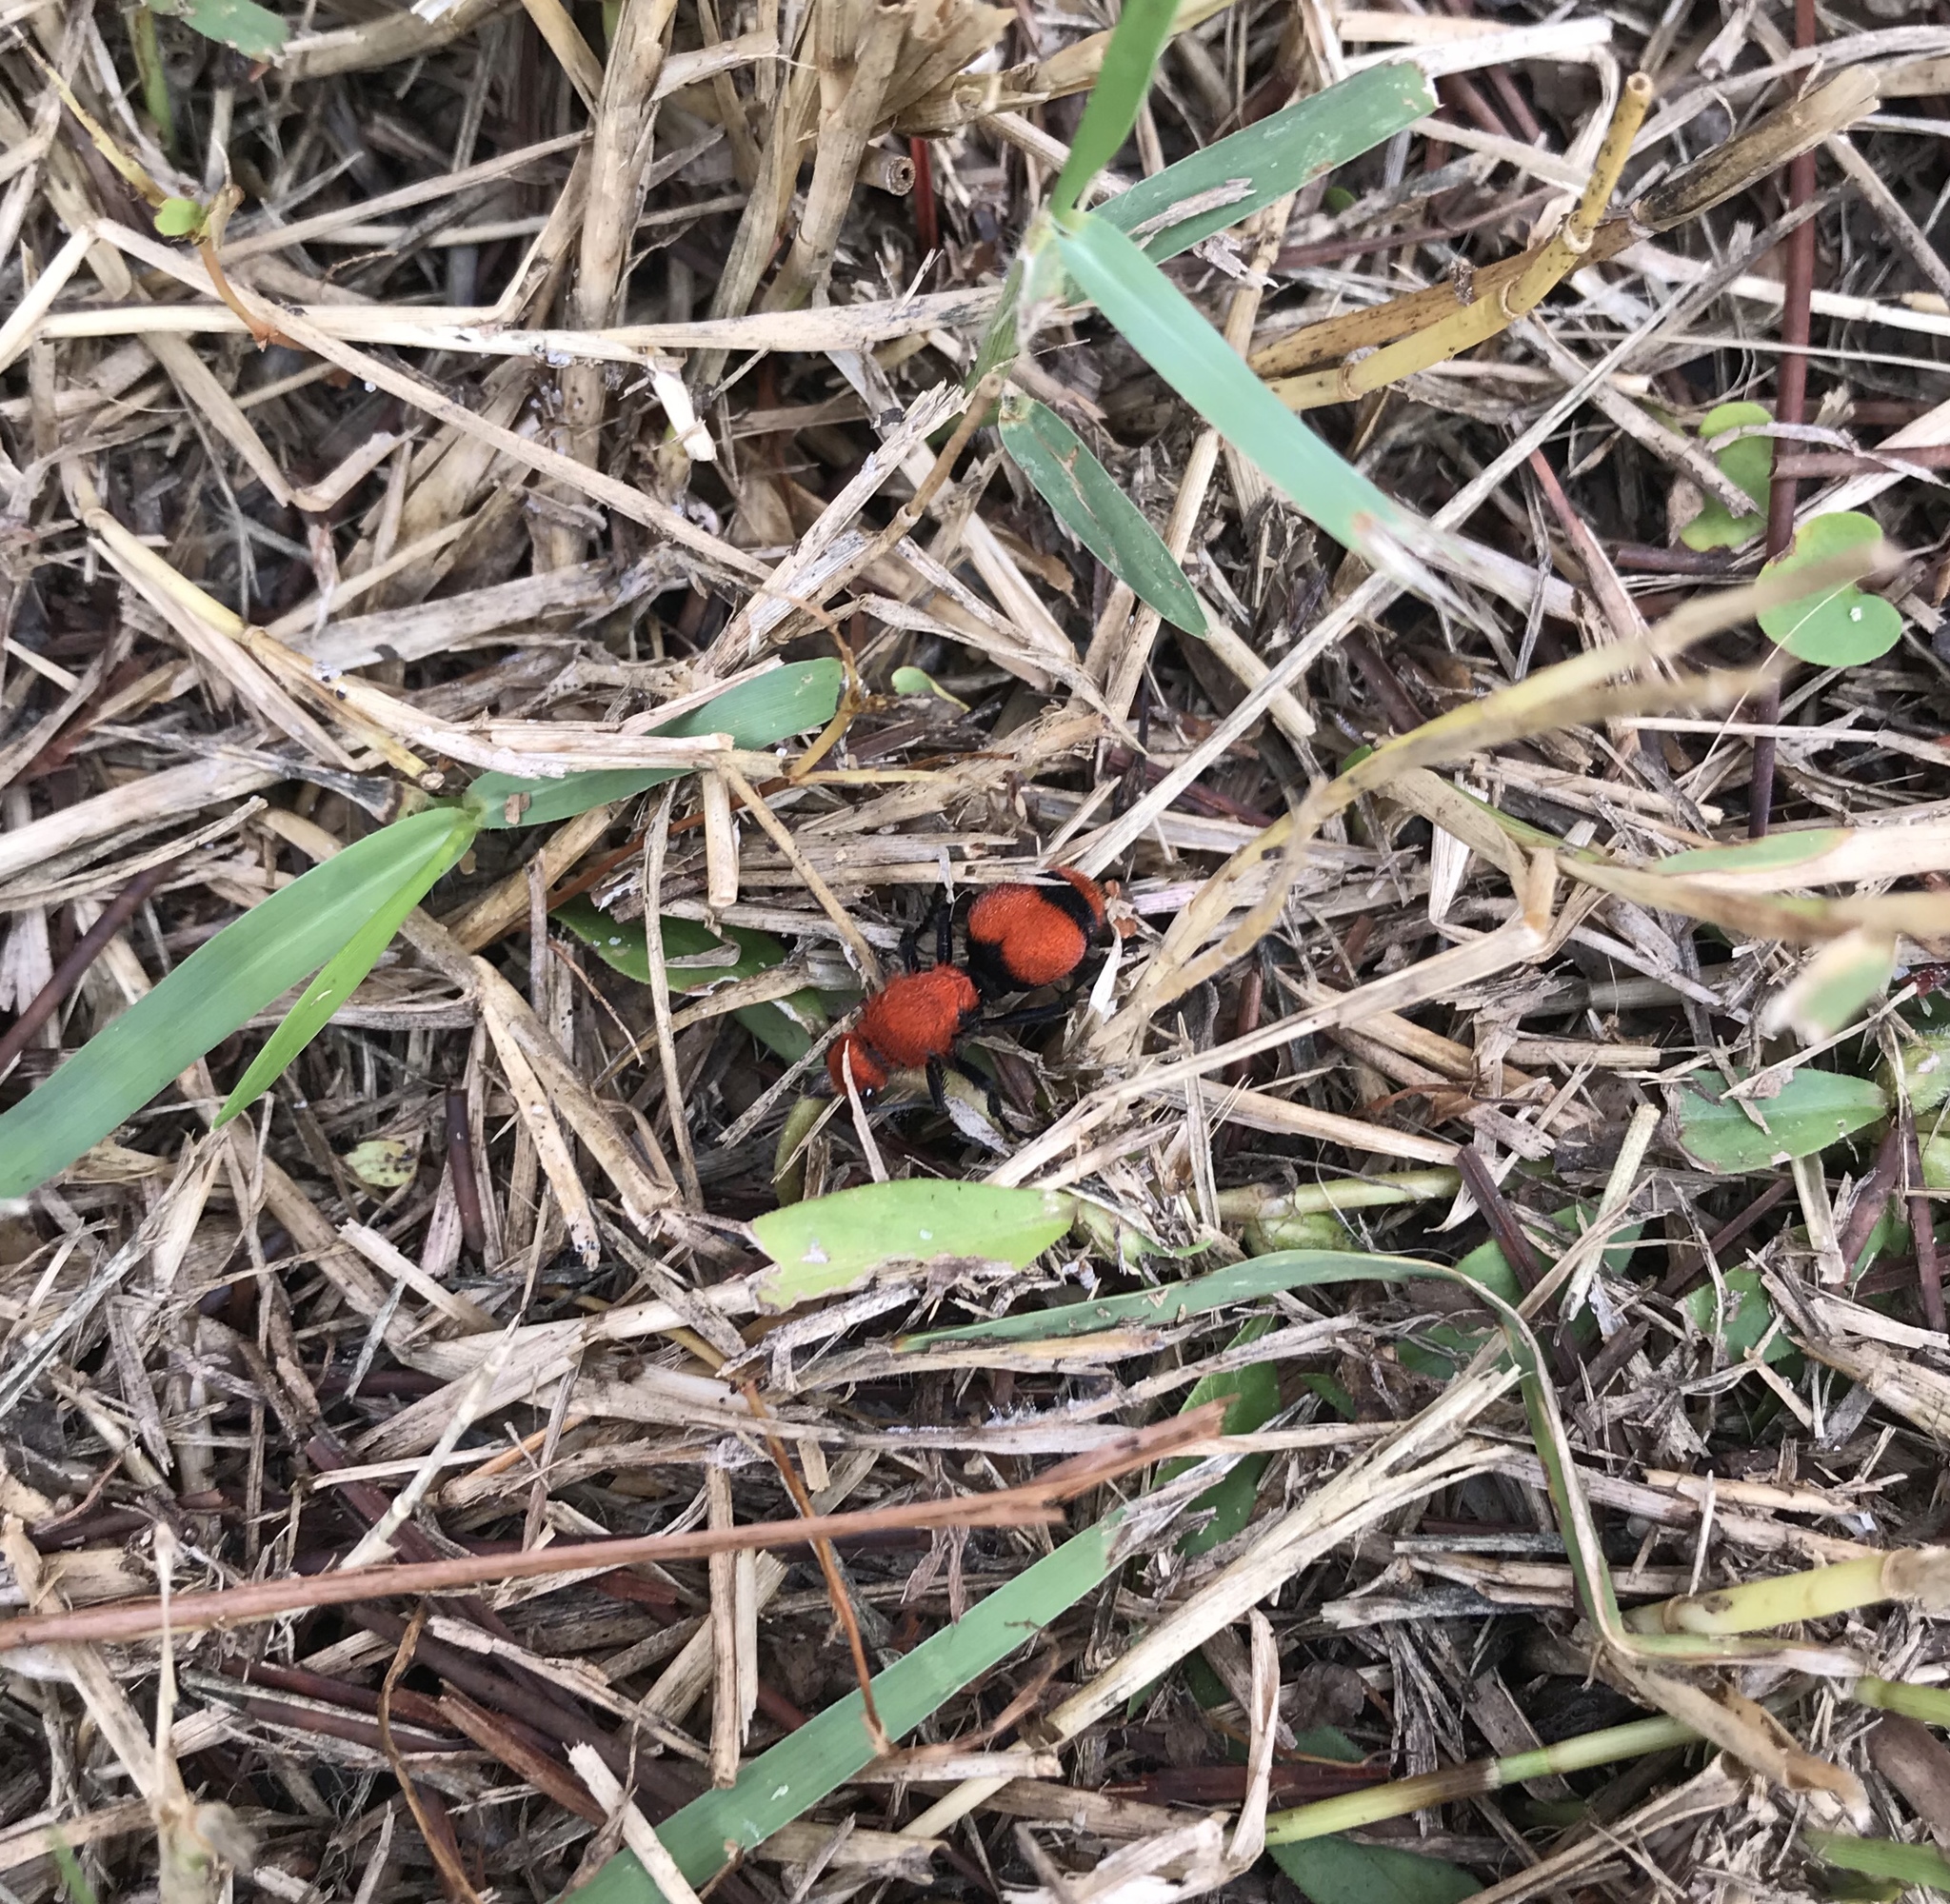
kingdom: Animalia
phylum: Arthropoda
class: Insecta
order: Hymenoptera
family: Mutillidae
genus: Dasymutilla
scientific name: Dasymutilla occidentalis
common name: Common eastern velvet ant
